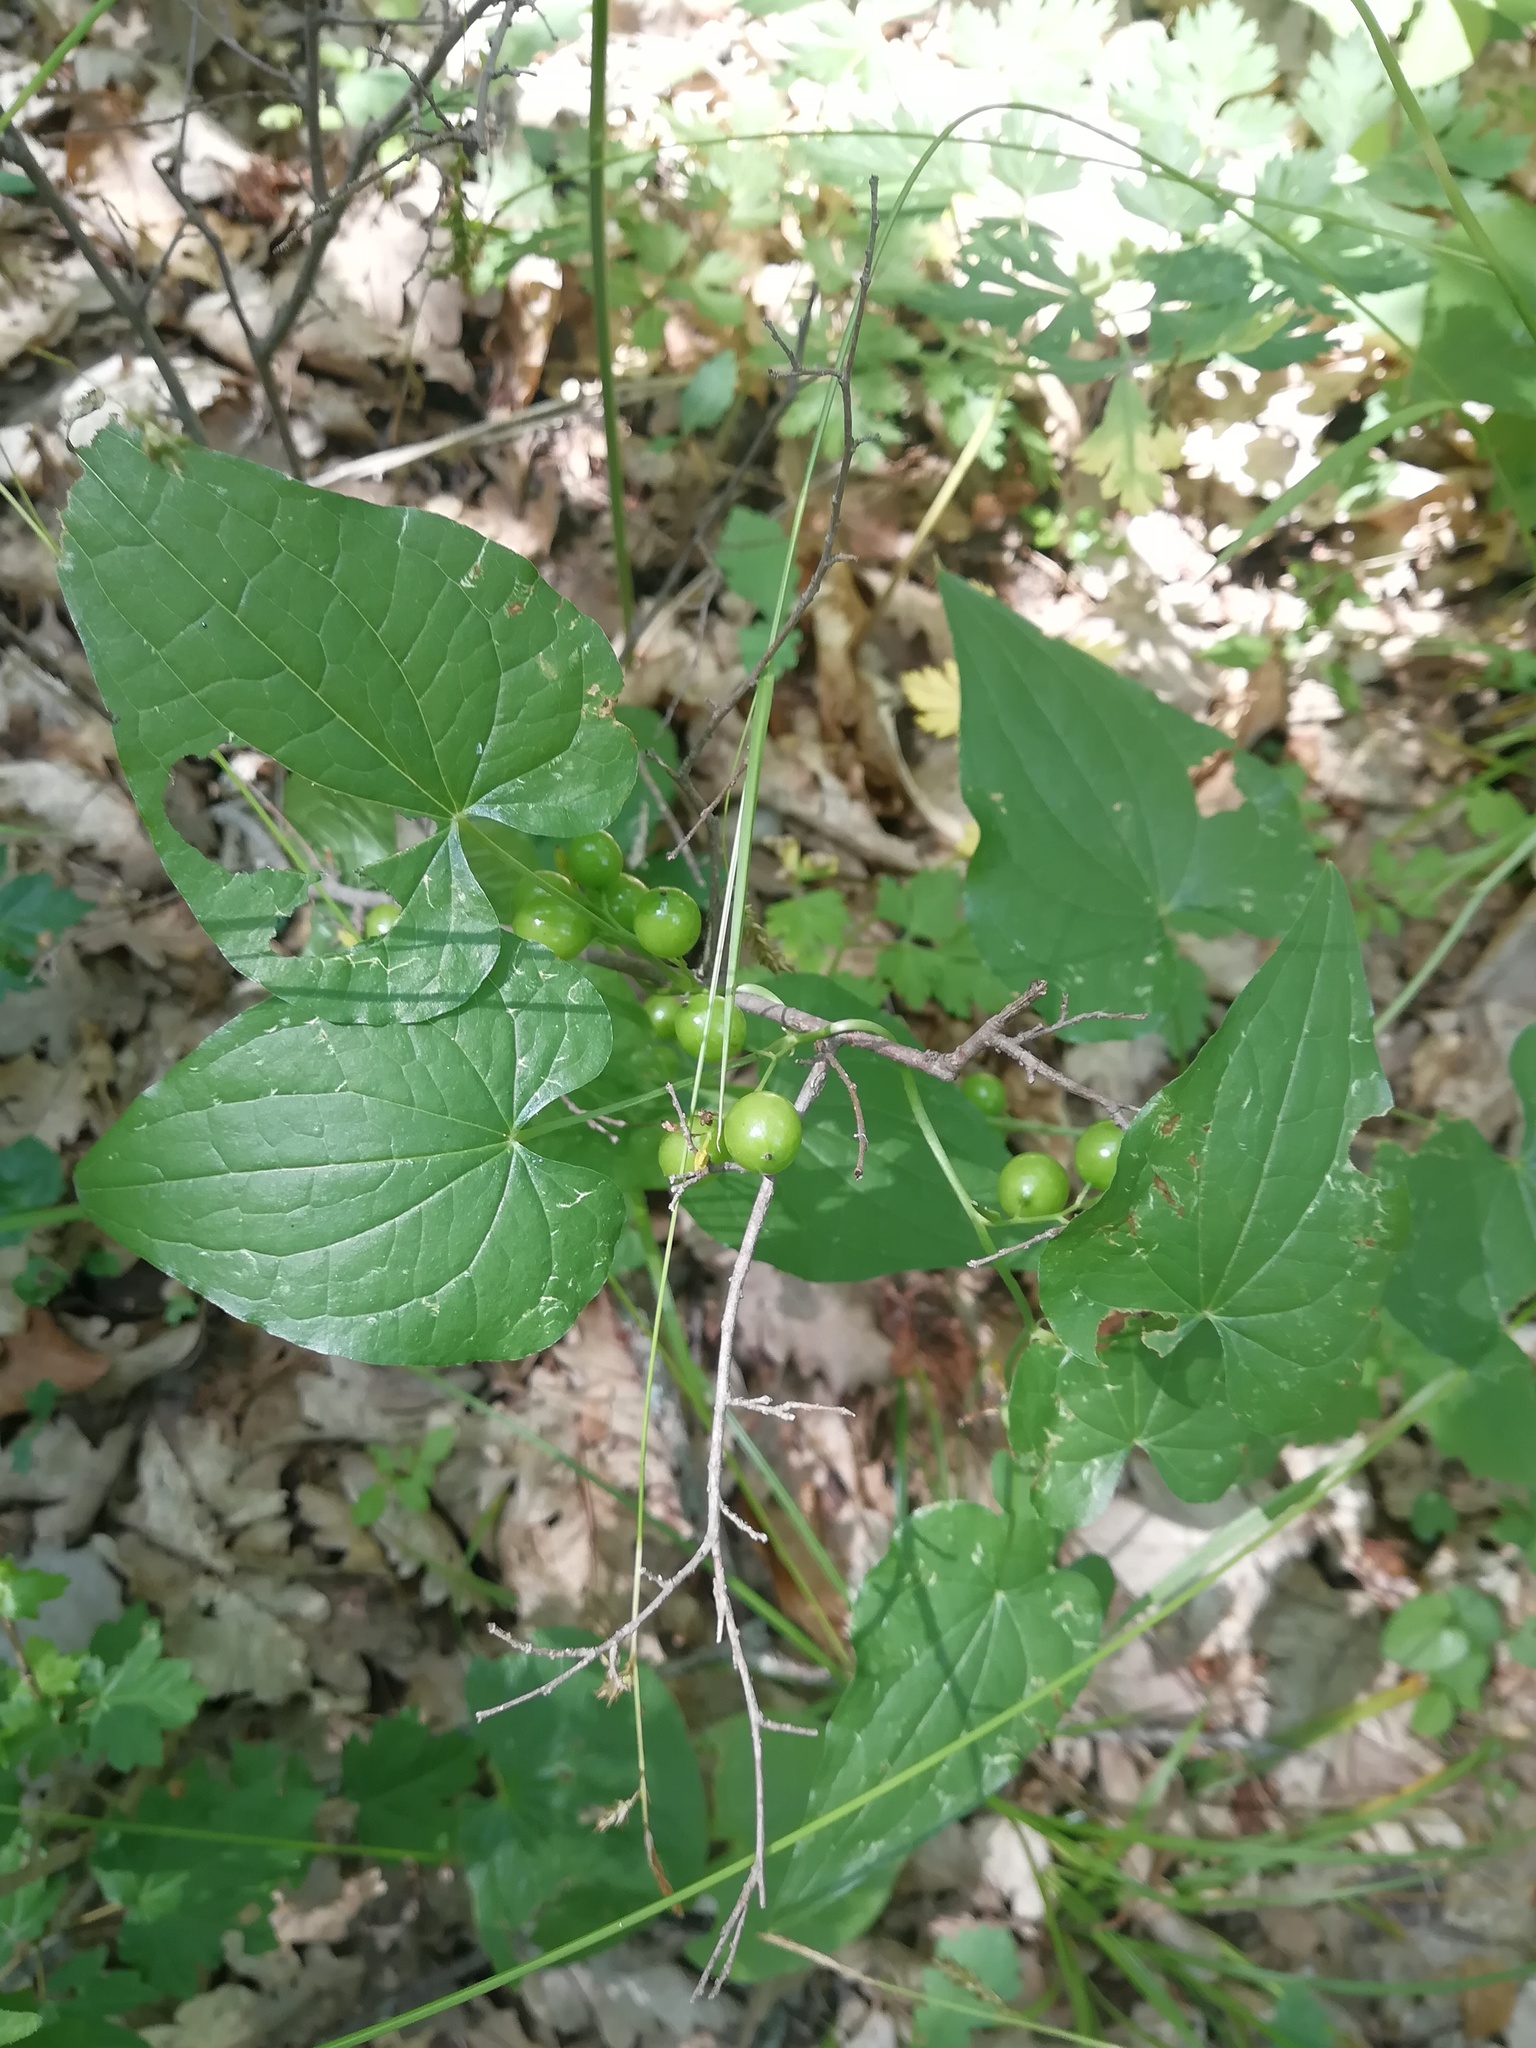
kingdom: Plantae
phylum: Tracheophyta
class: Liliopsida
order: Dioscoreales
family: Dioscoreaceae
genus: Dioscorea
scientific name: Dioscorea communis
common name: Black-bindweed
